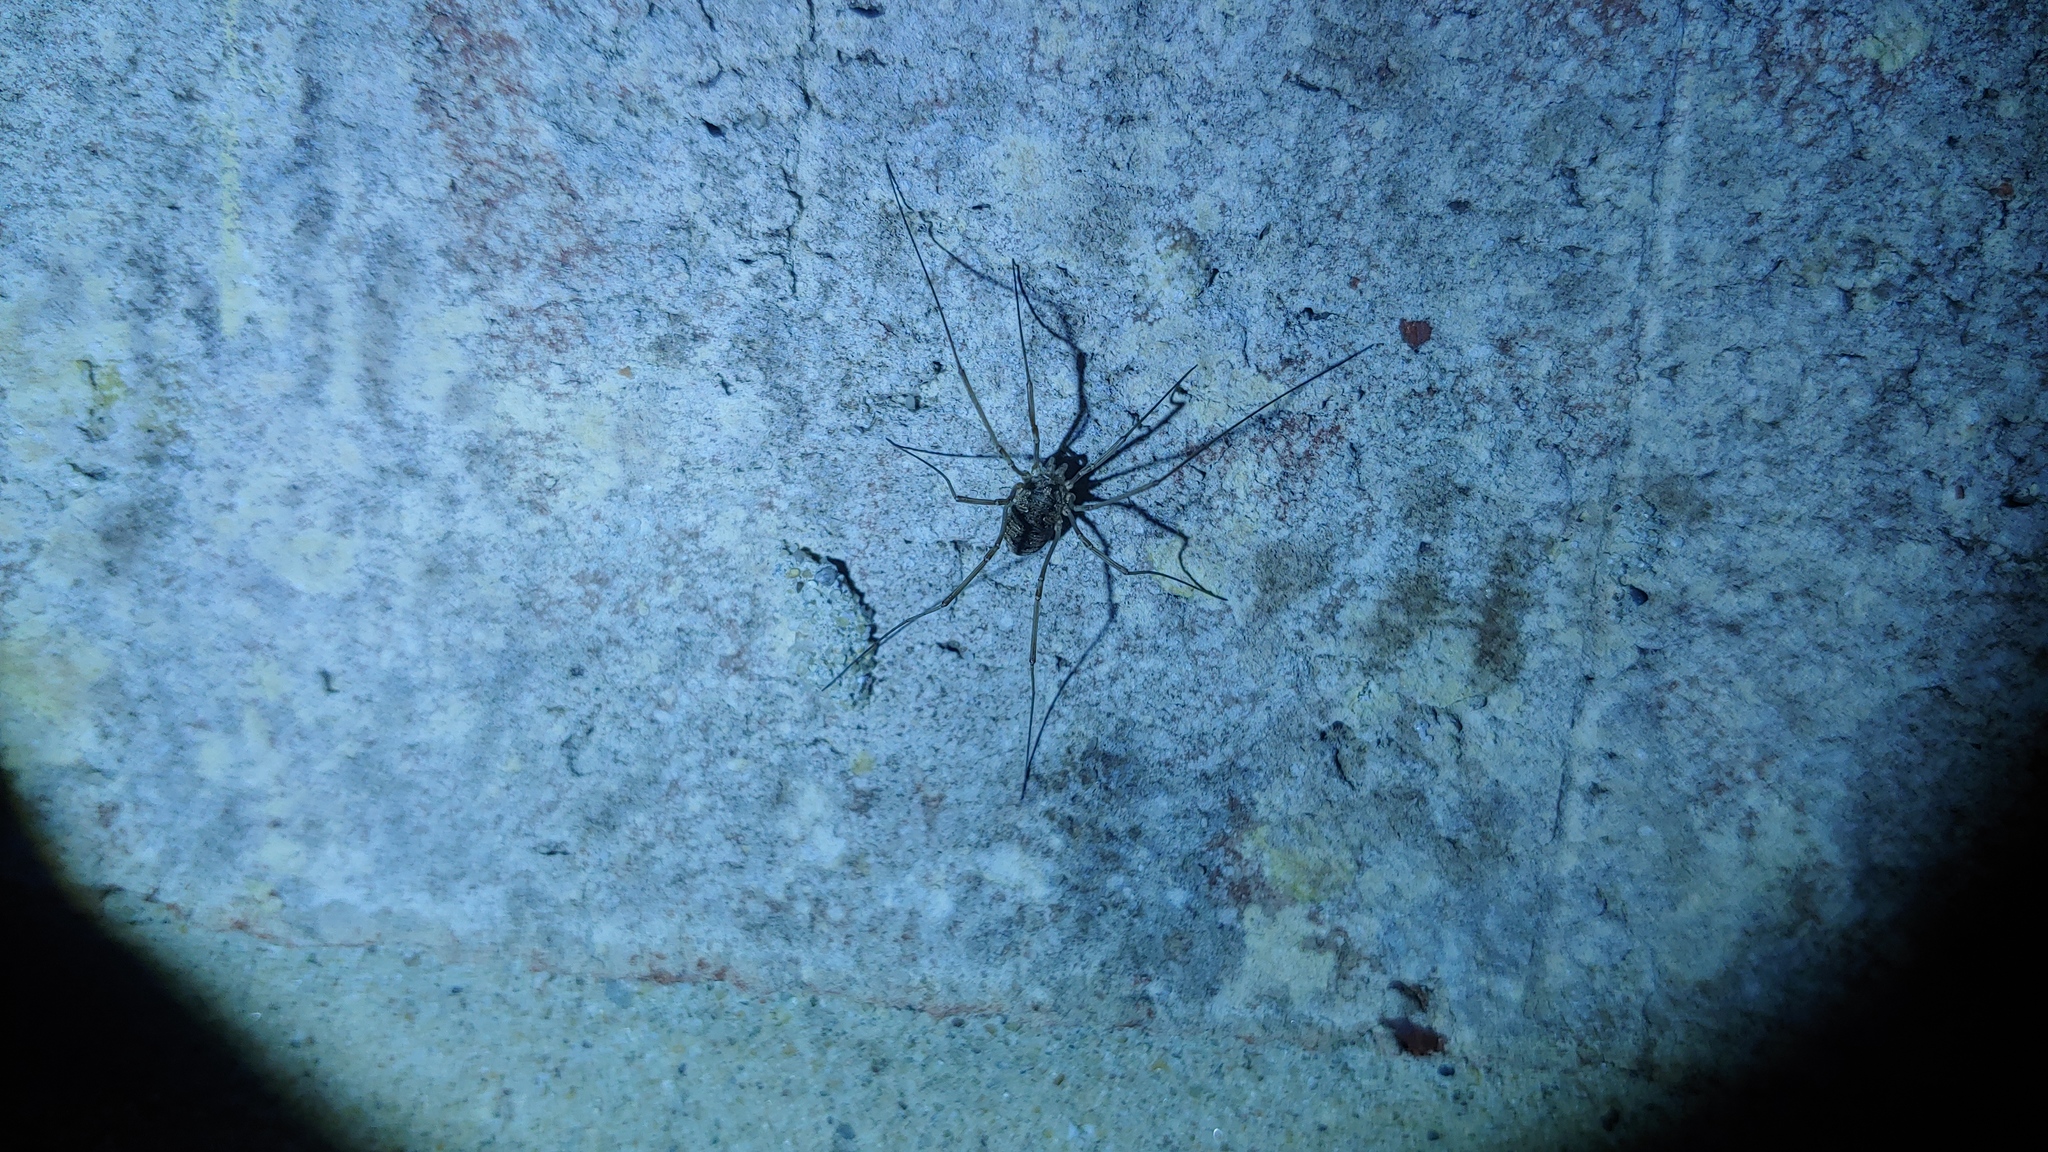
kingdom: Animalia
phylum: Arthropoda
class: Arachnida
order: Opiliones
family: Phalangiidae
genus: Phalangium
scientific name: Phalangium opilio
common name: Daddy longleg
